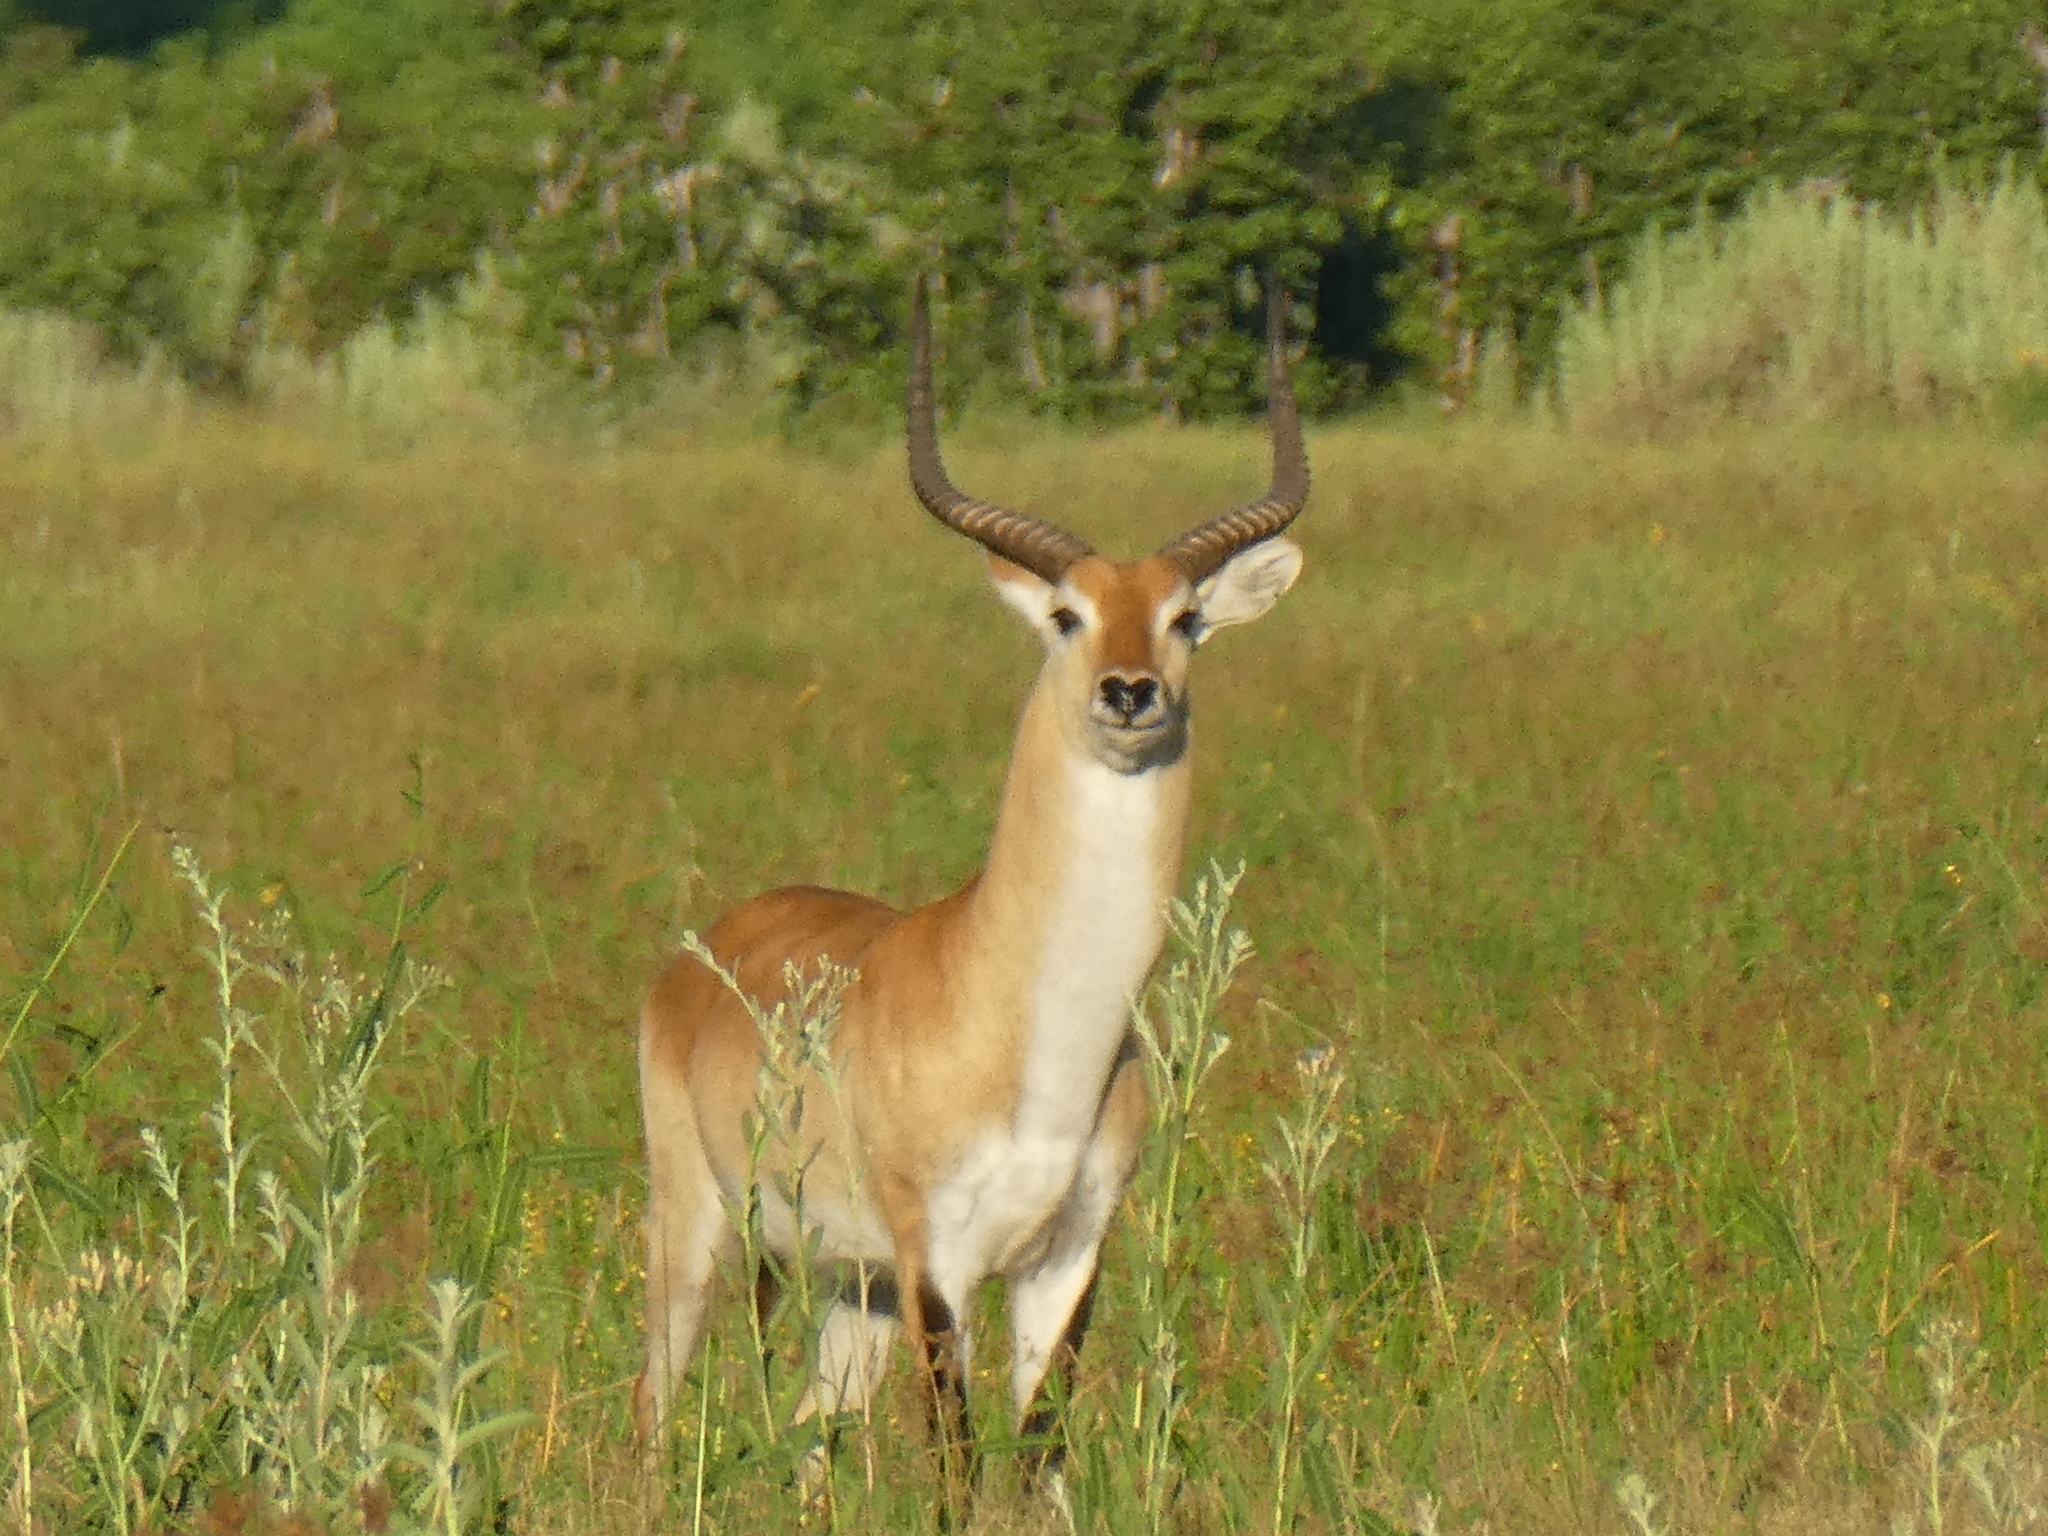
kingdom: Animalia
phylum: Chordata
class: Mammalia
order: Artiodactyla
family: Bovidae
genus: Kobus
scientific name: Kobus leche
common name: Lechwe
